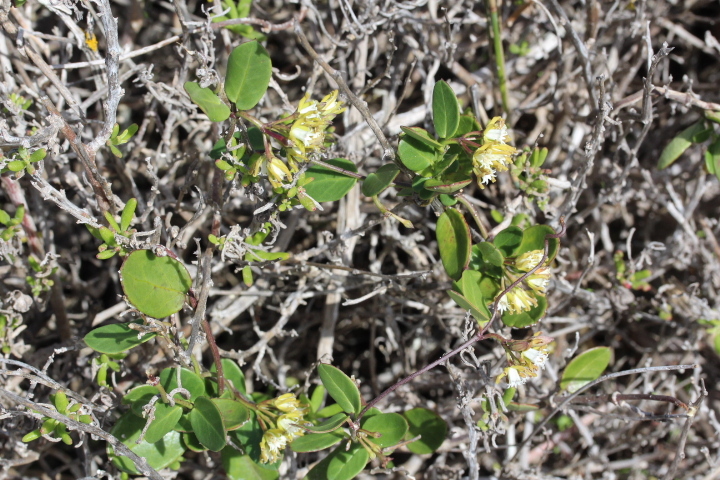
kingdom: Plantae
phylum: Tracheophyta
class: Magnoliopsida
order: Gentianales
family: Apocynaceae
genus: Cynanchum
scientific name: Cynanchum africanum
